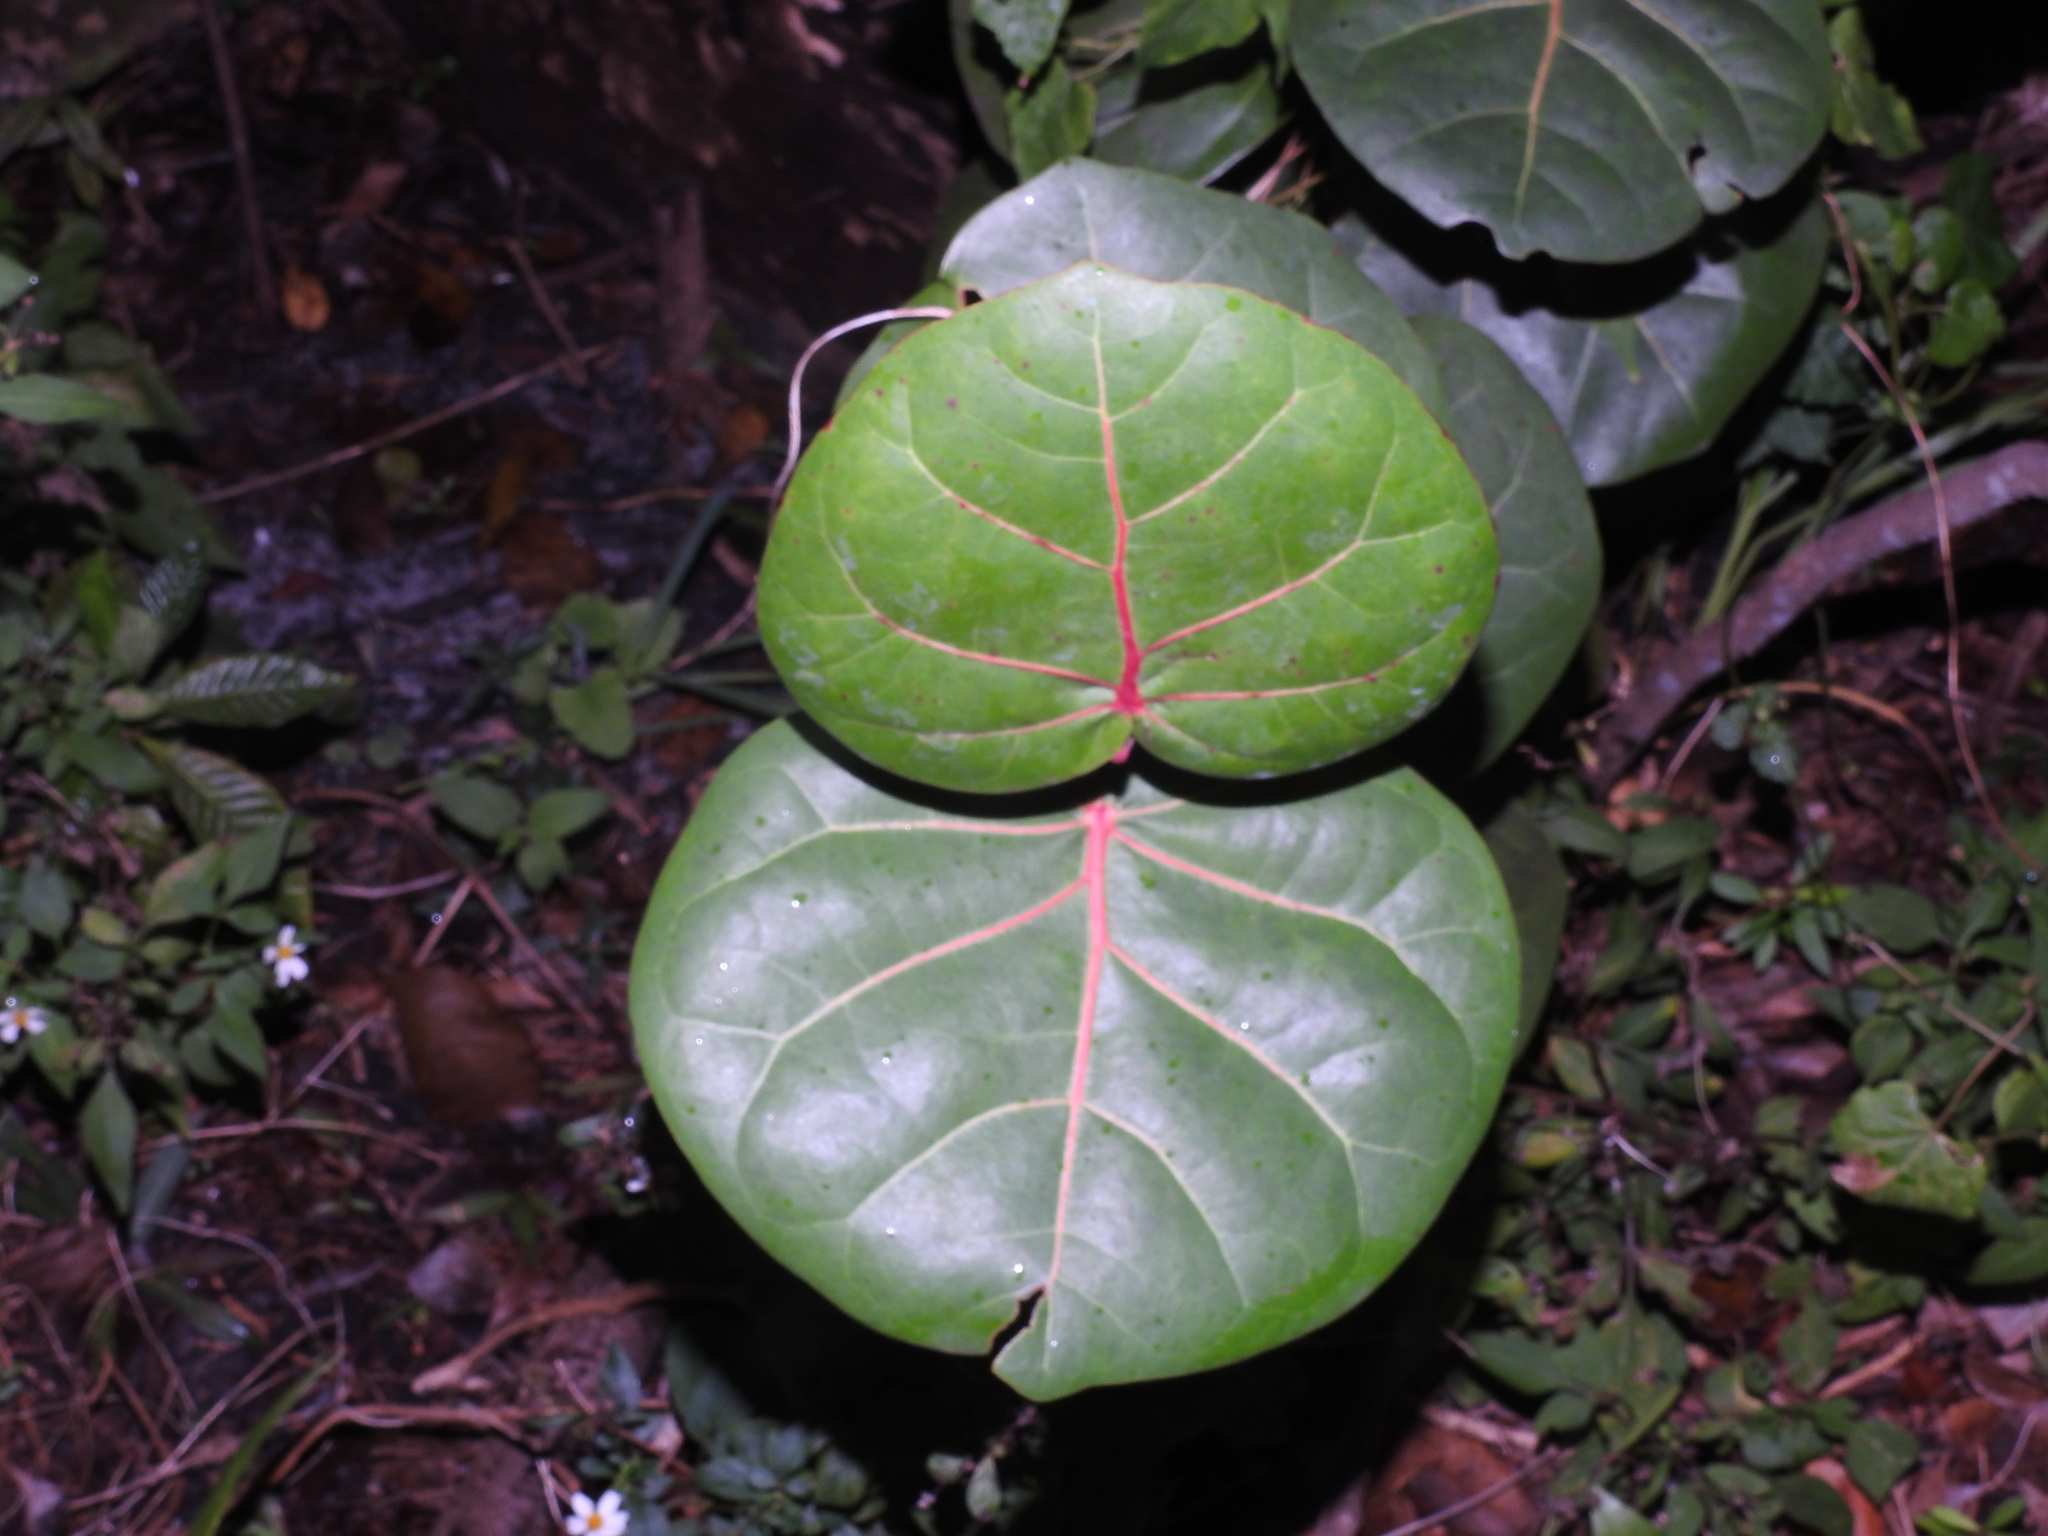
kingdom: Plantae
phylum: Tracheophyta
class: Magnoliopsida
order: Caryophyllales
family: Polygonaceae
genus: Coccoloba
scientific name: Coccoloba uvifera
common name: Seagrape
